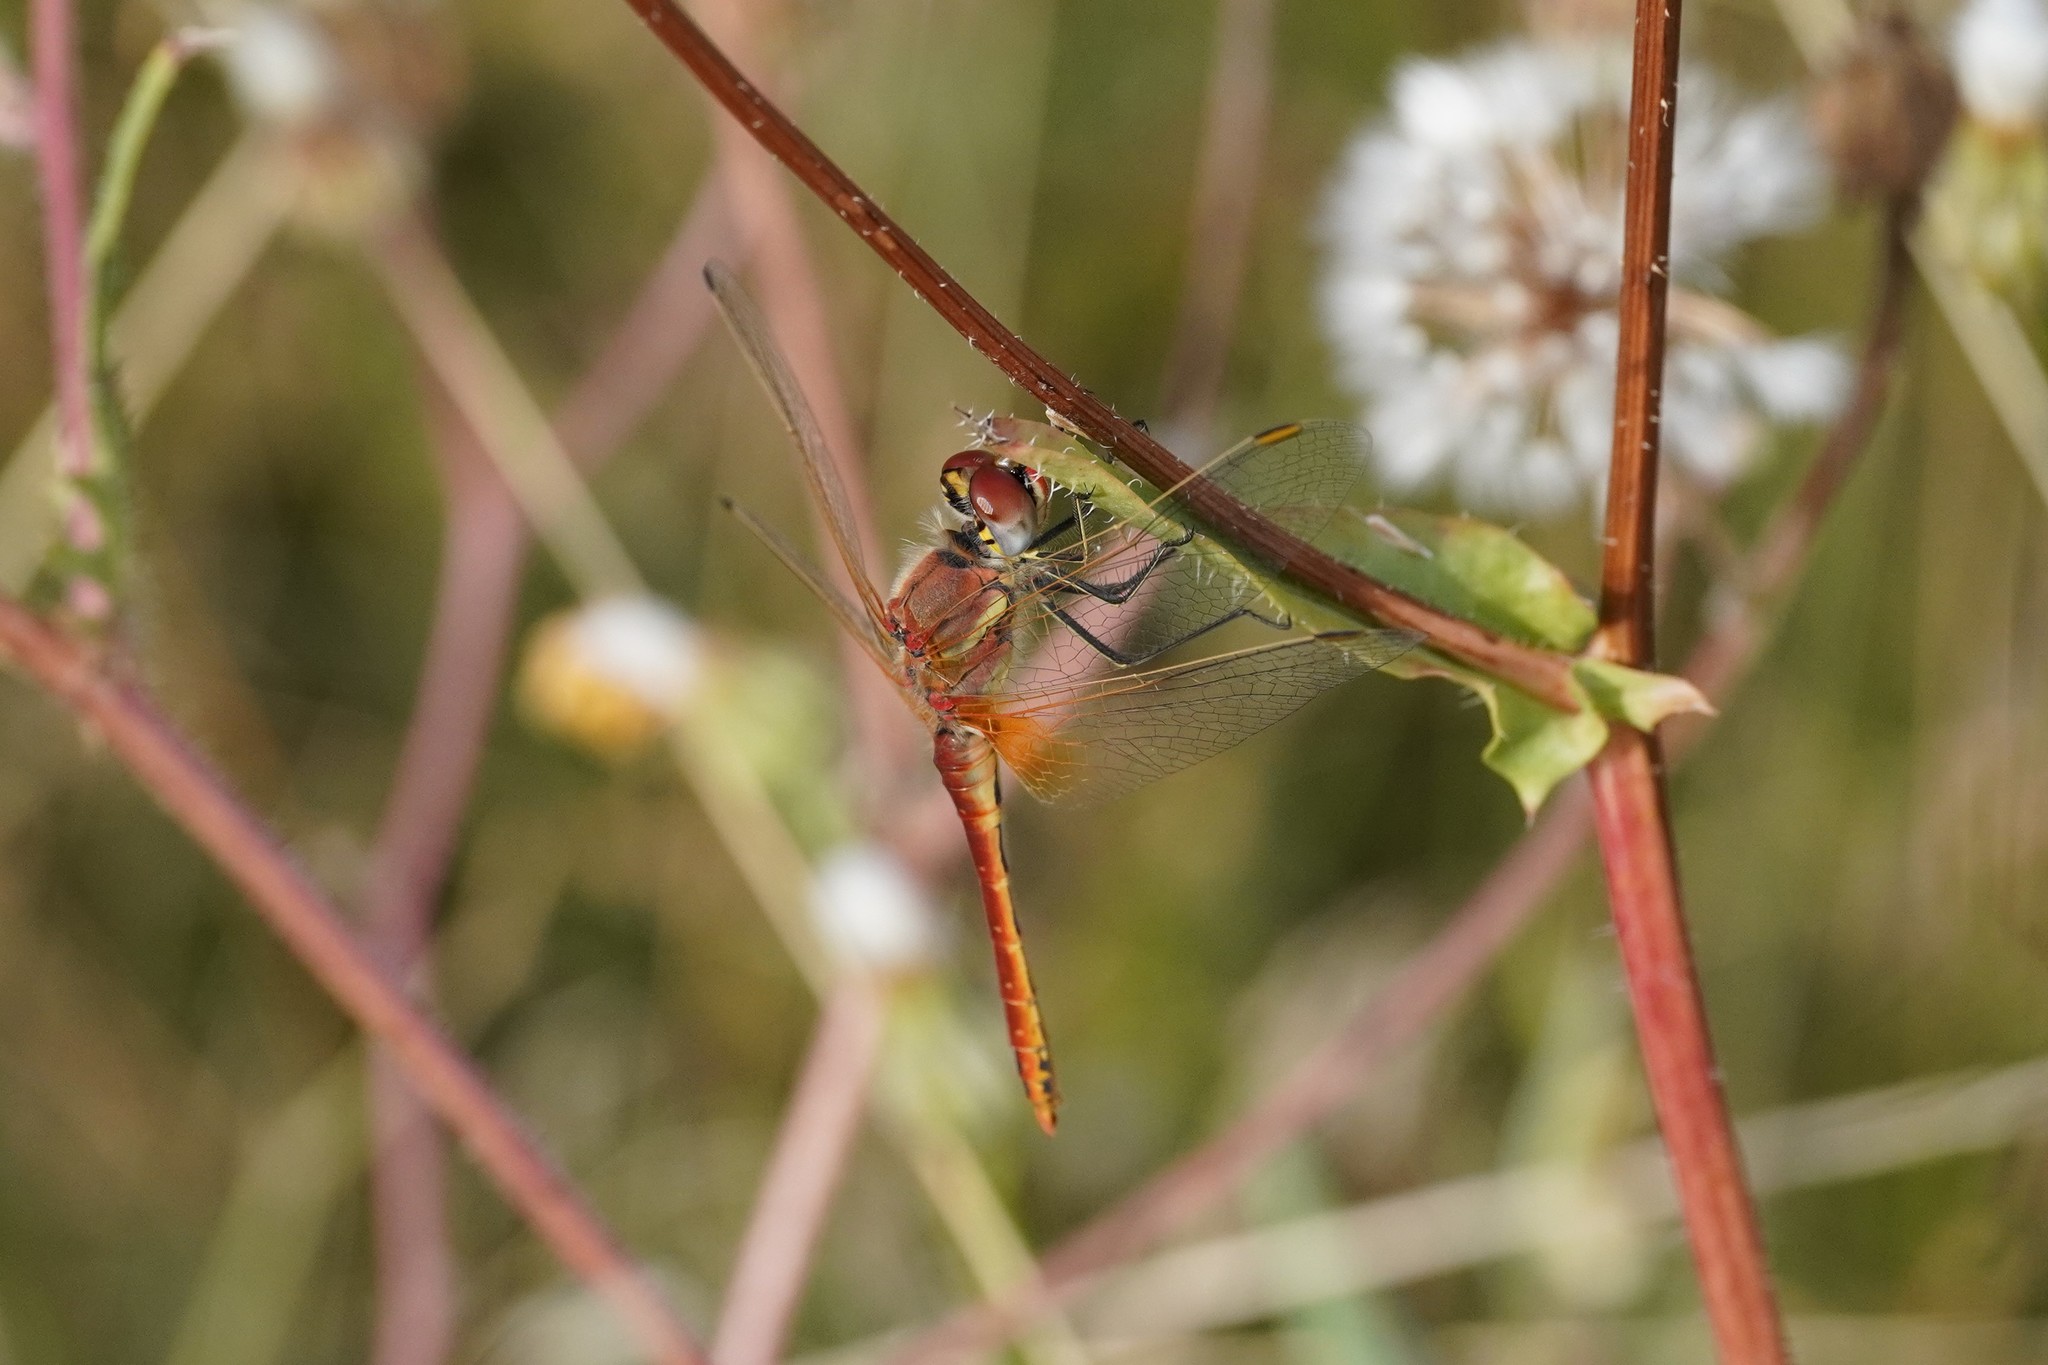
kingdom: Animalia
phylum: Arthropoda
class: Insecta
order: Odonata
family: Libellulidae
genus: Sympetrum
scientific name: Sympetrum fonscolombii
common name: Red-veined darter
